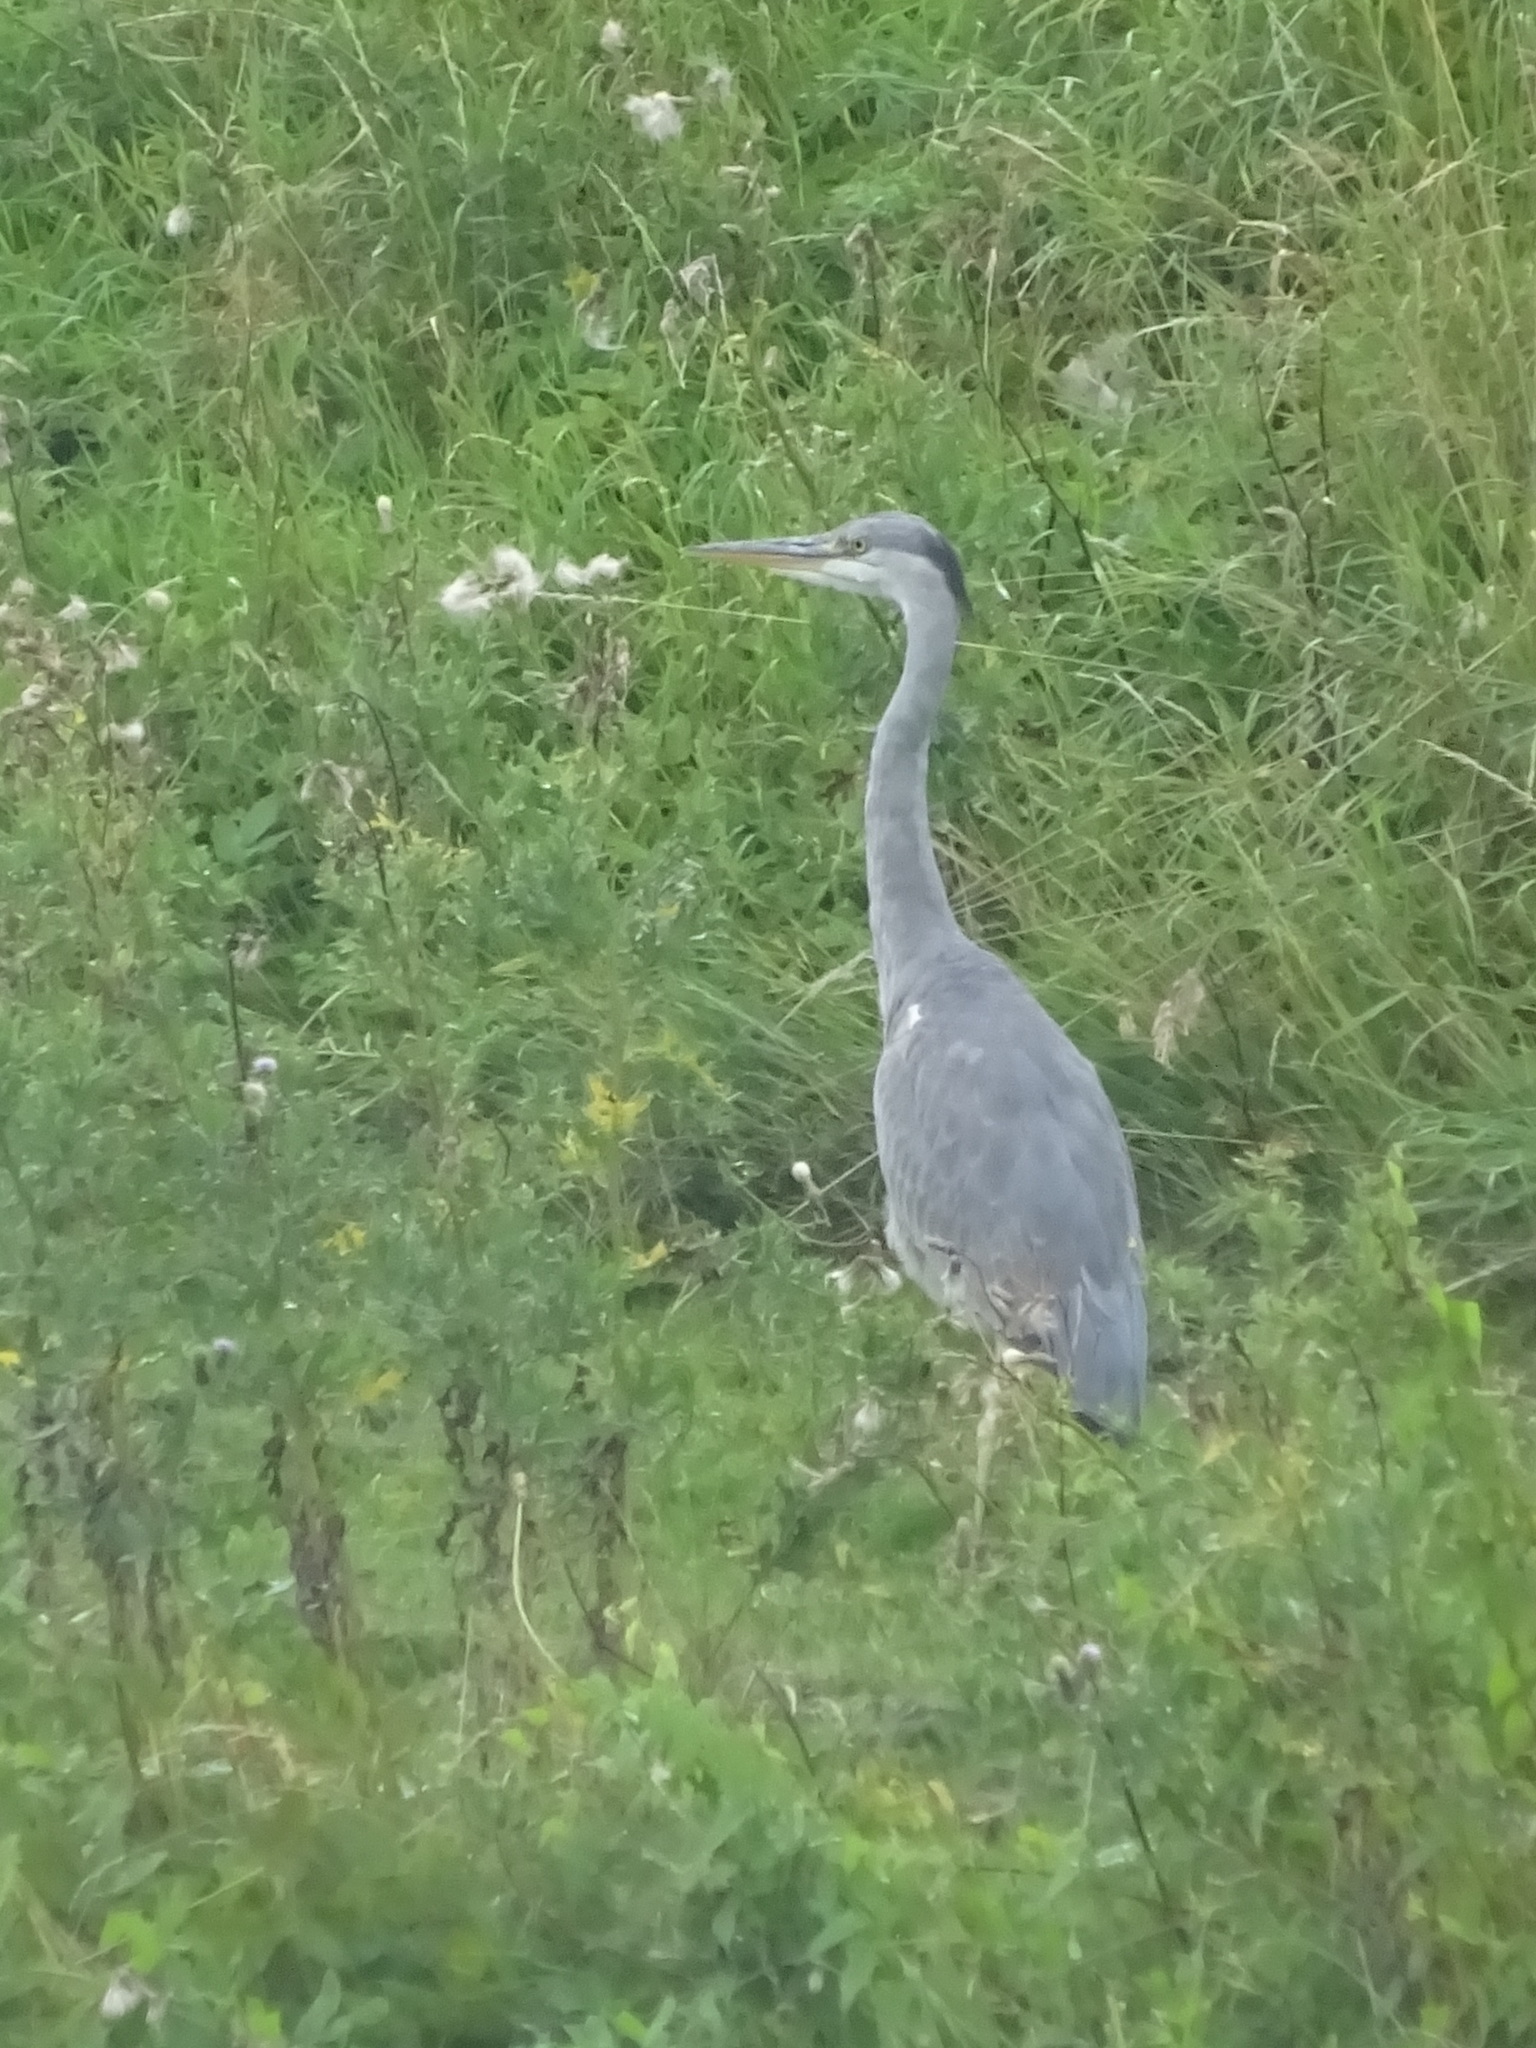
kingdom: Animalia
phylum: Chordata
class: Aves
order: Pelecaniformes
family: Ardeidae
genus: Ardea
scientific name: Ardea cinerea
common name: Grey heron
